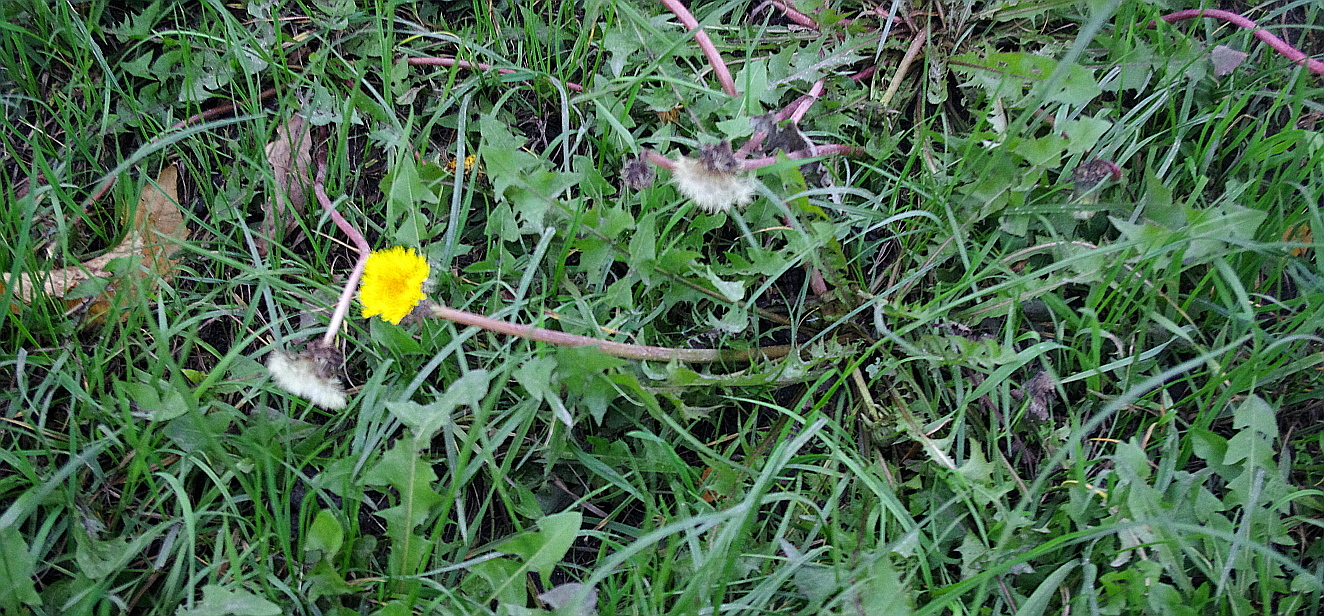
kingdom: Plantae
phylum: Tracheophyta
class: Magnoliopsida
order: Asterales
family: Asteraceae
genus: Taraxacum
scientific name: Taraxacum officinale
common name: Common dandelion
